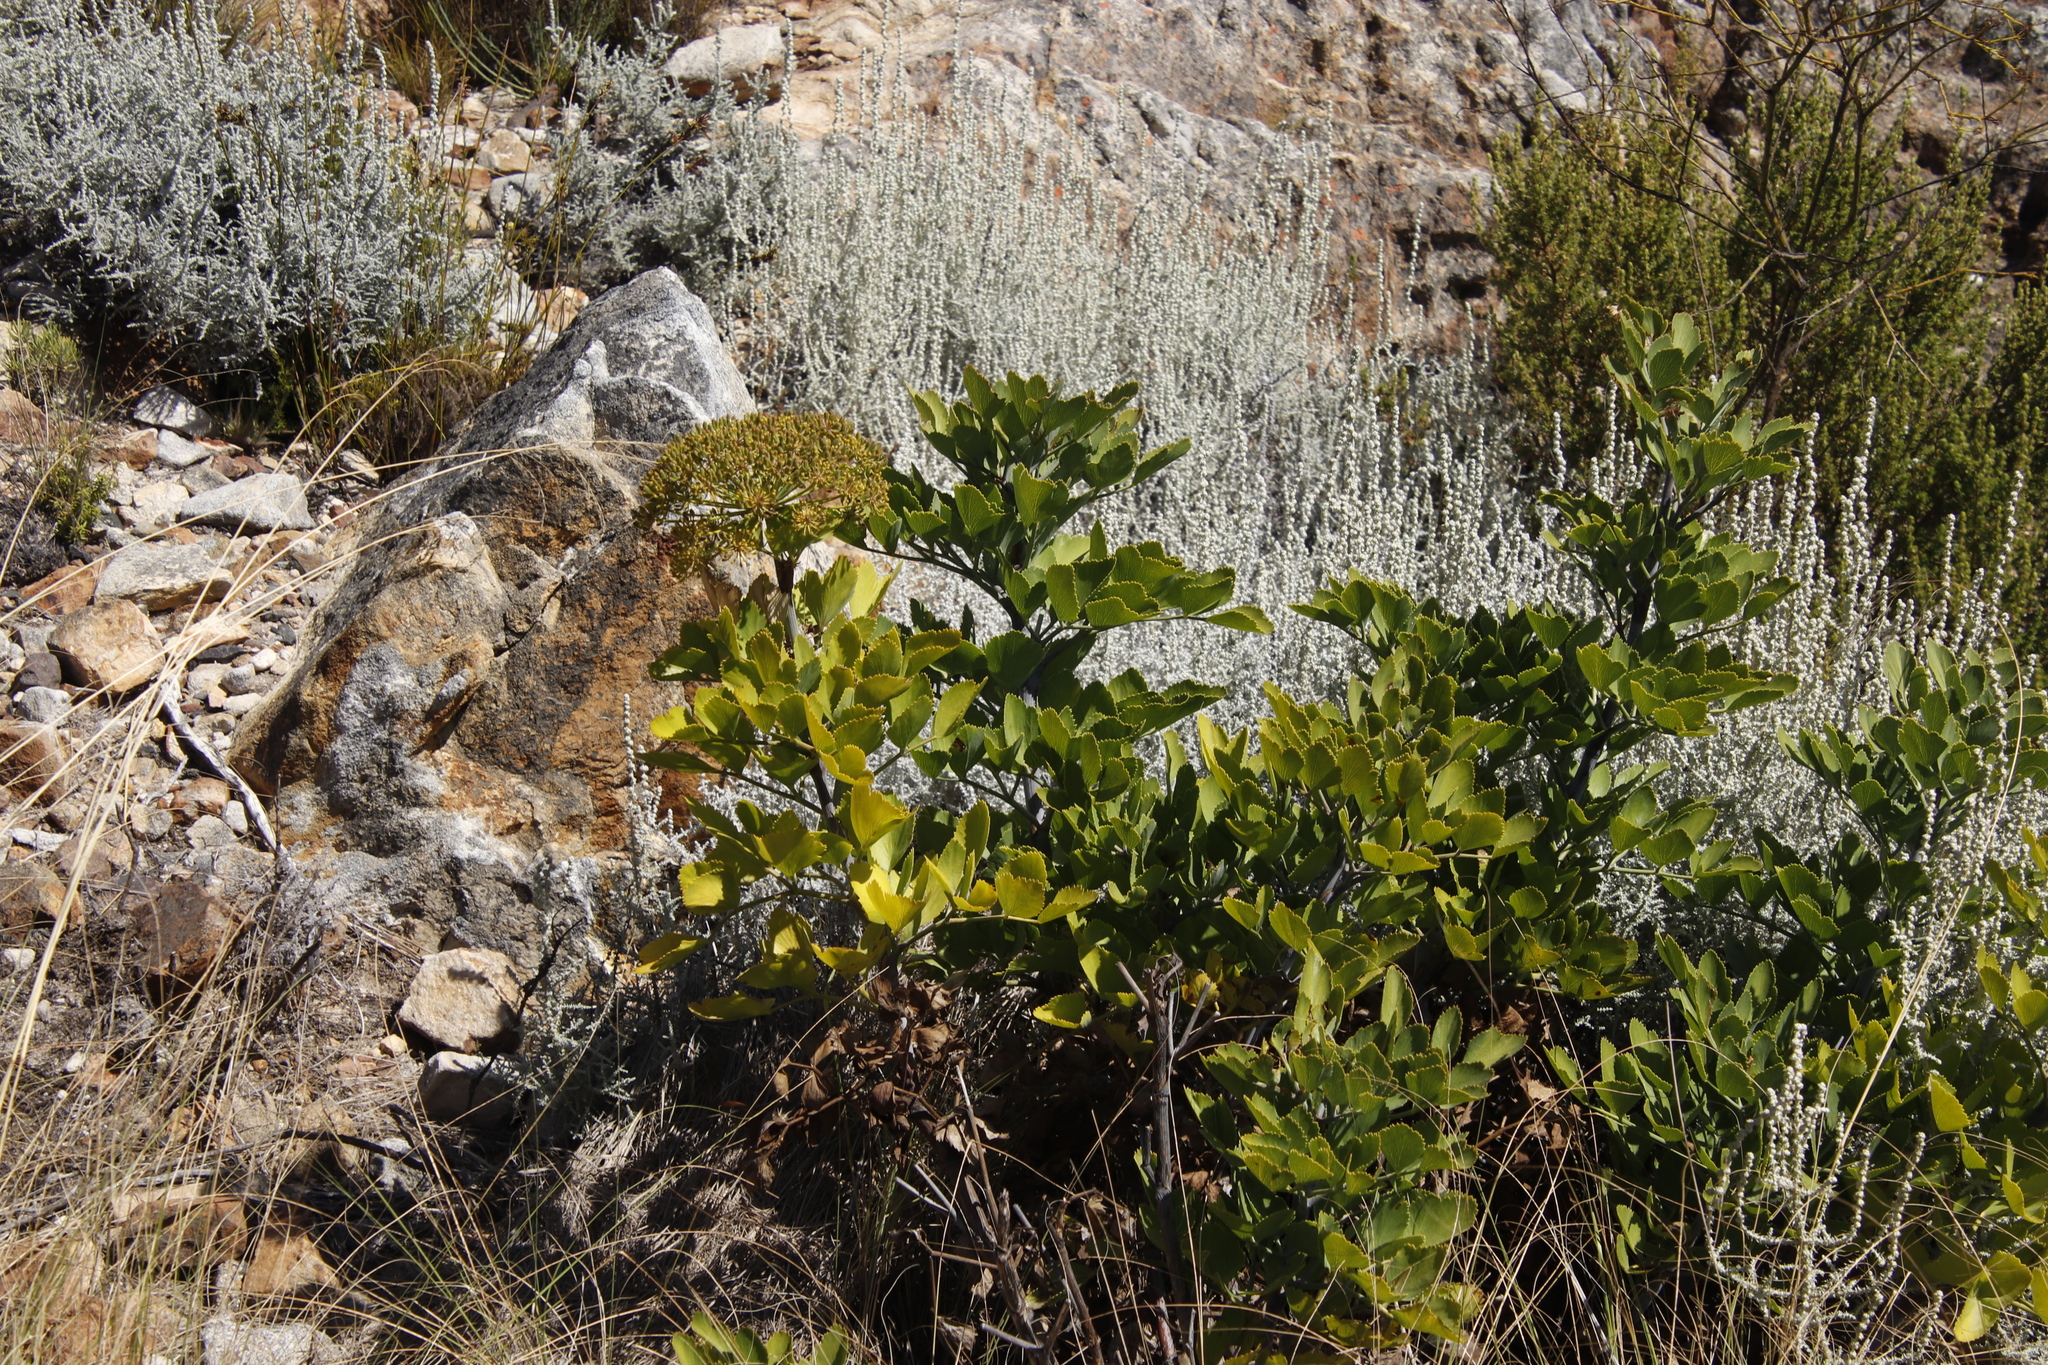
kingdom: Plantae
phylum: Tracheophyta
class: Magnoliopsida
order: Apiales
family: Apiaceae
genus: Notobubon
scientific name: Notobubon galbanum
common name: Blisterbush
